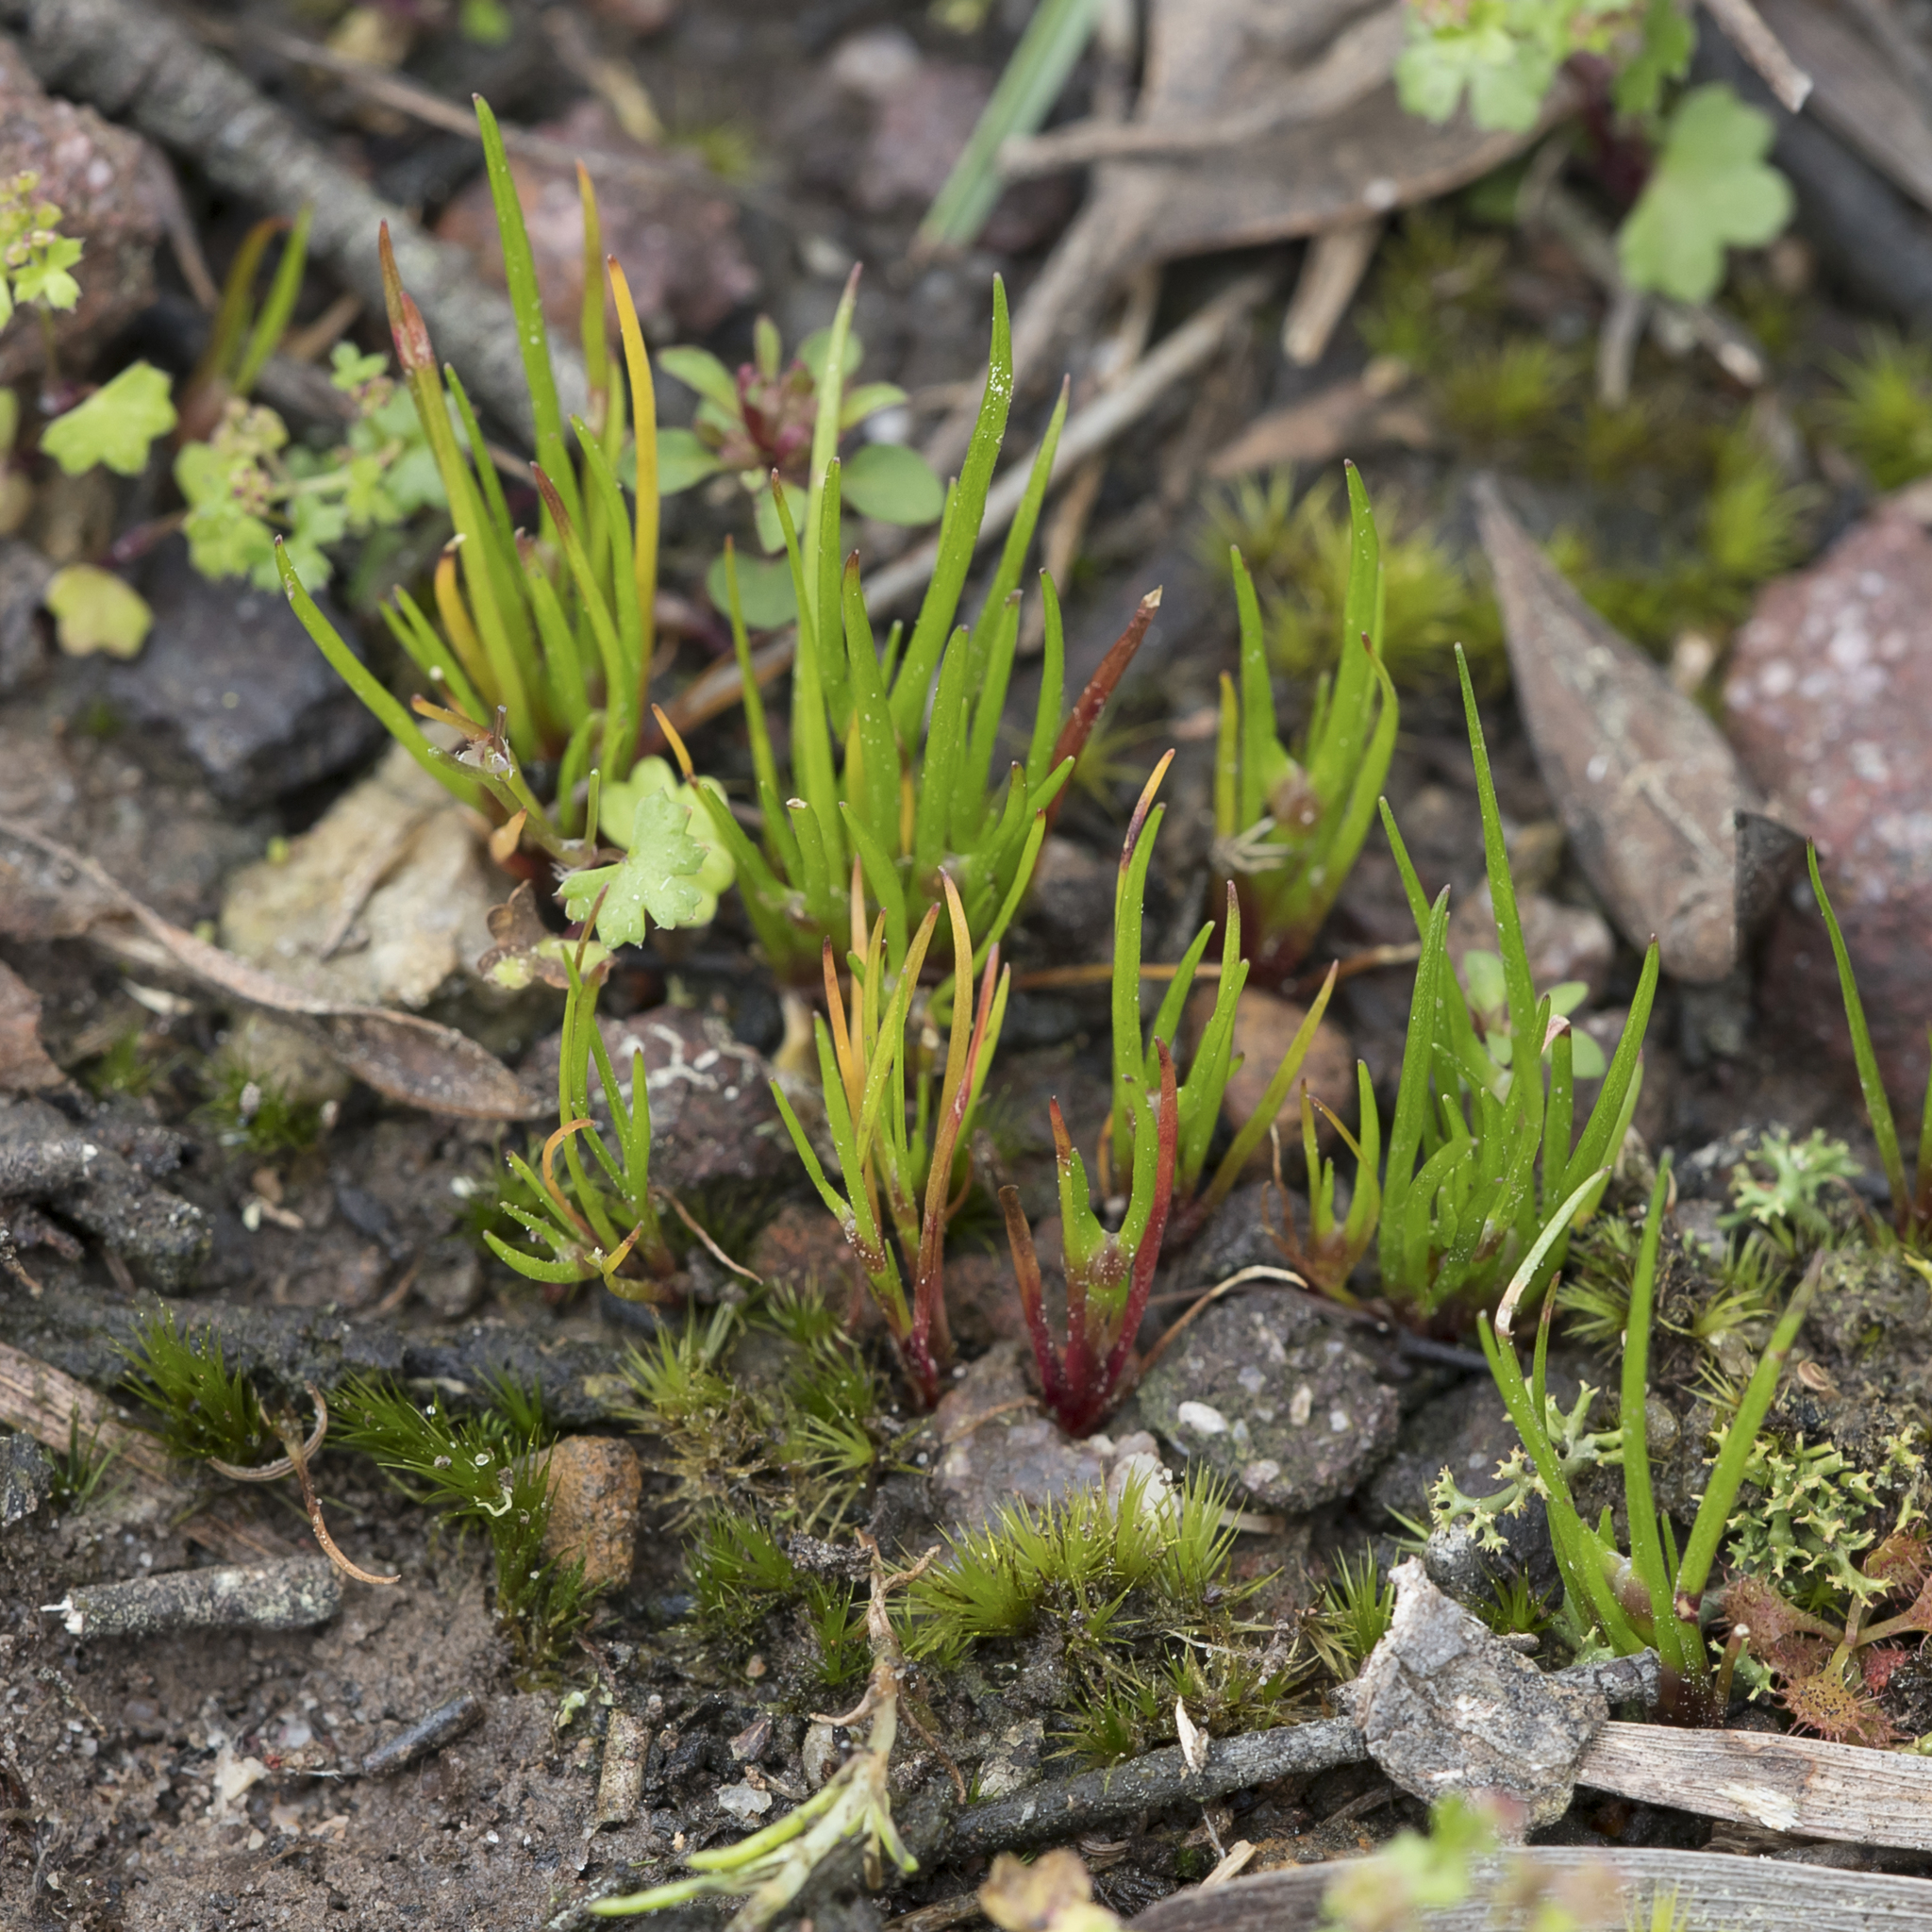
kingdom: Plantae
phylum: Tracheophyta
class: Liliopsida
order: Poales
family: Restionaceae
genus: Centrolepis
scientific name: Centrolepis aristata
